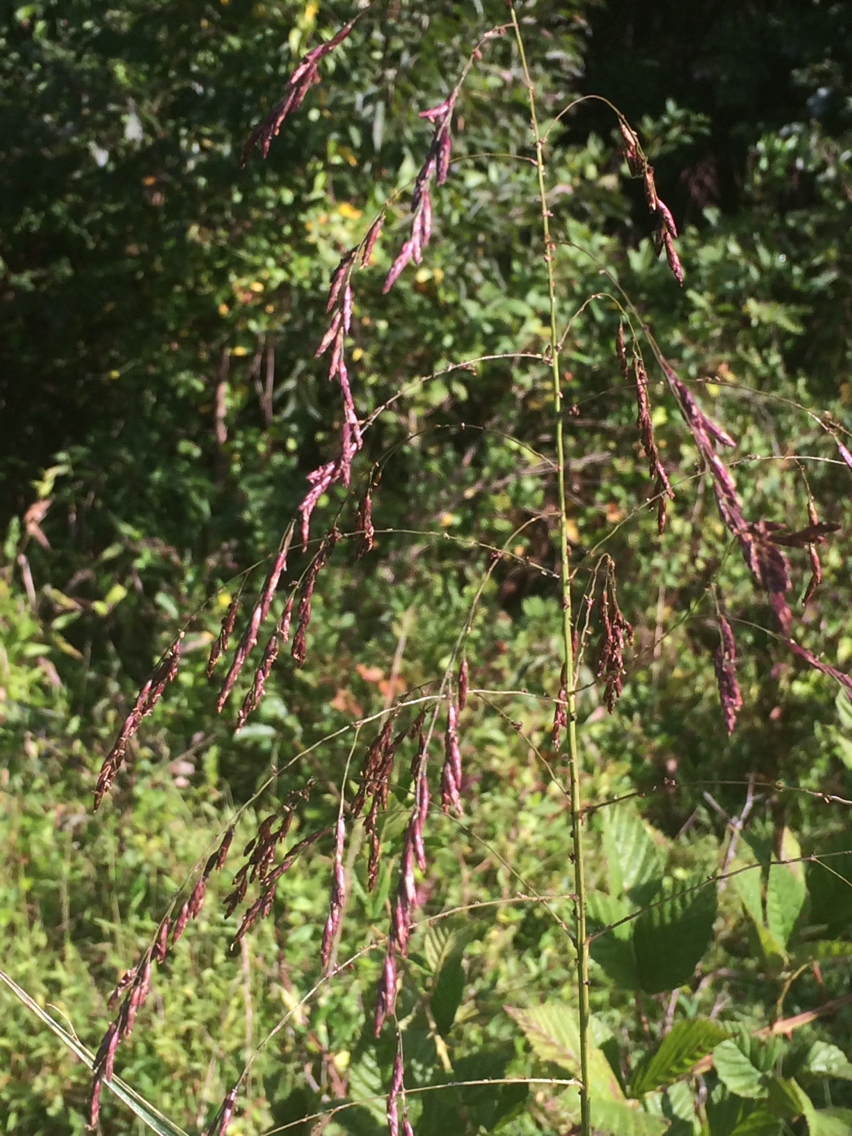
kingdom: Plantae
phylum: Tracheophyta
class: Liliopsida
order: Poales
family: Poaceae
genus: Tridens
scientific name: Tridens flavus
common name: Purpletop
